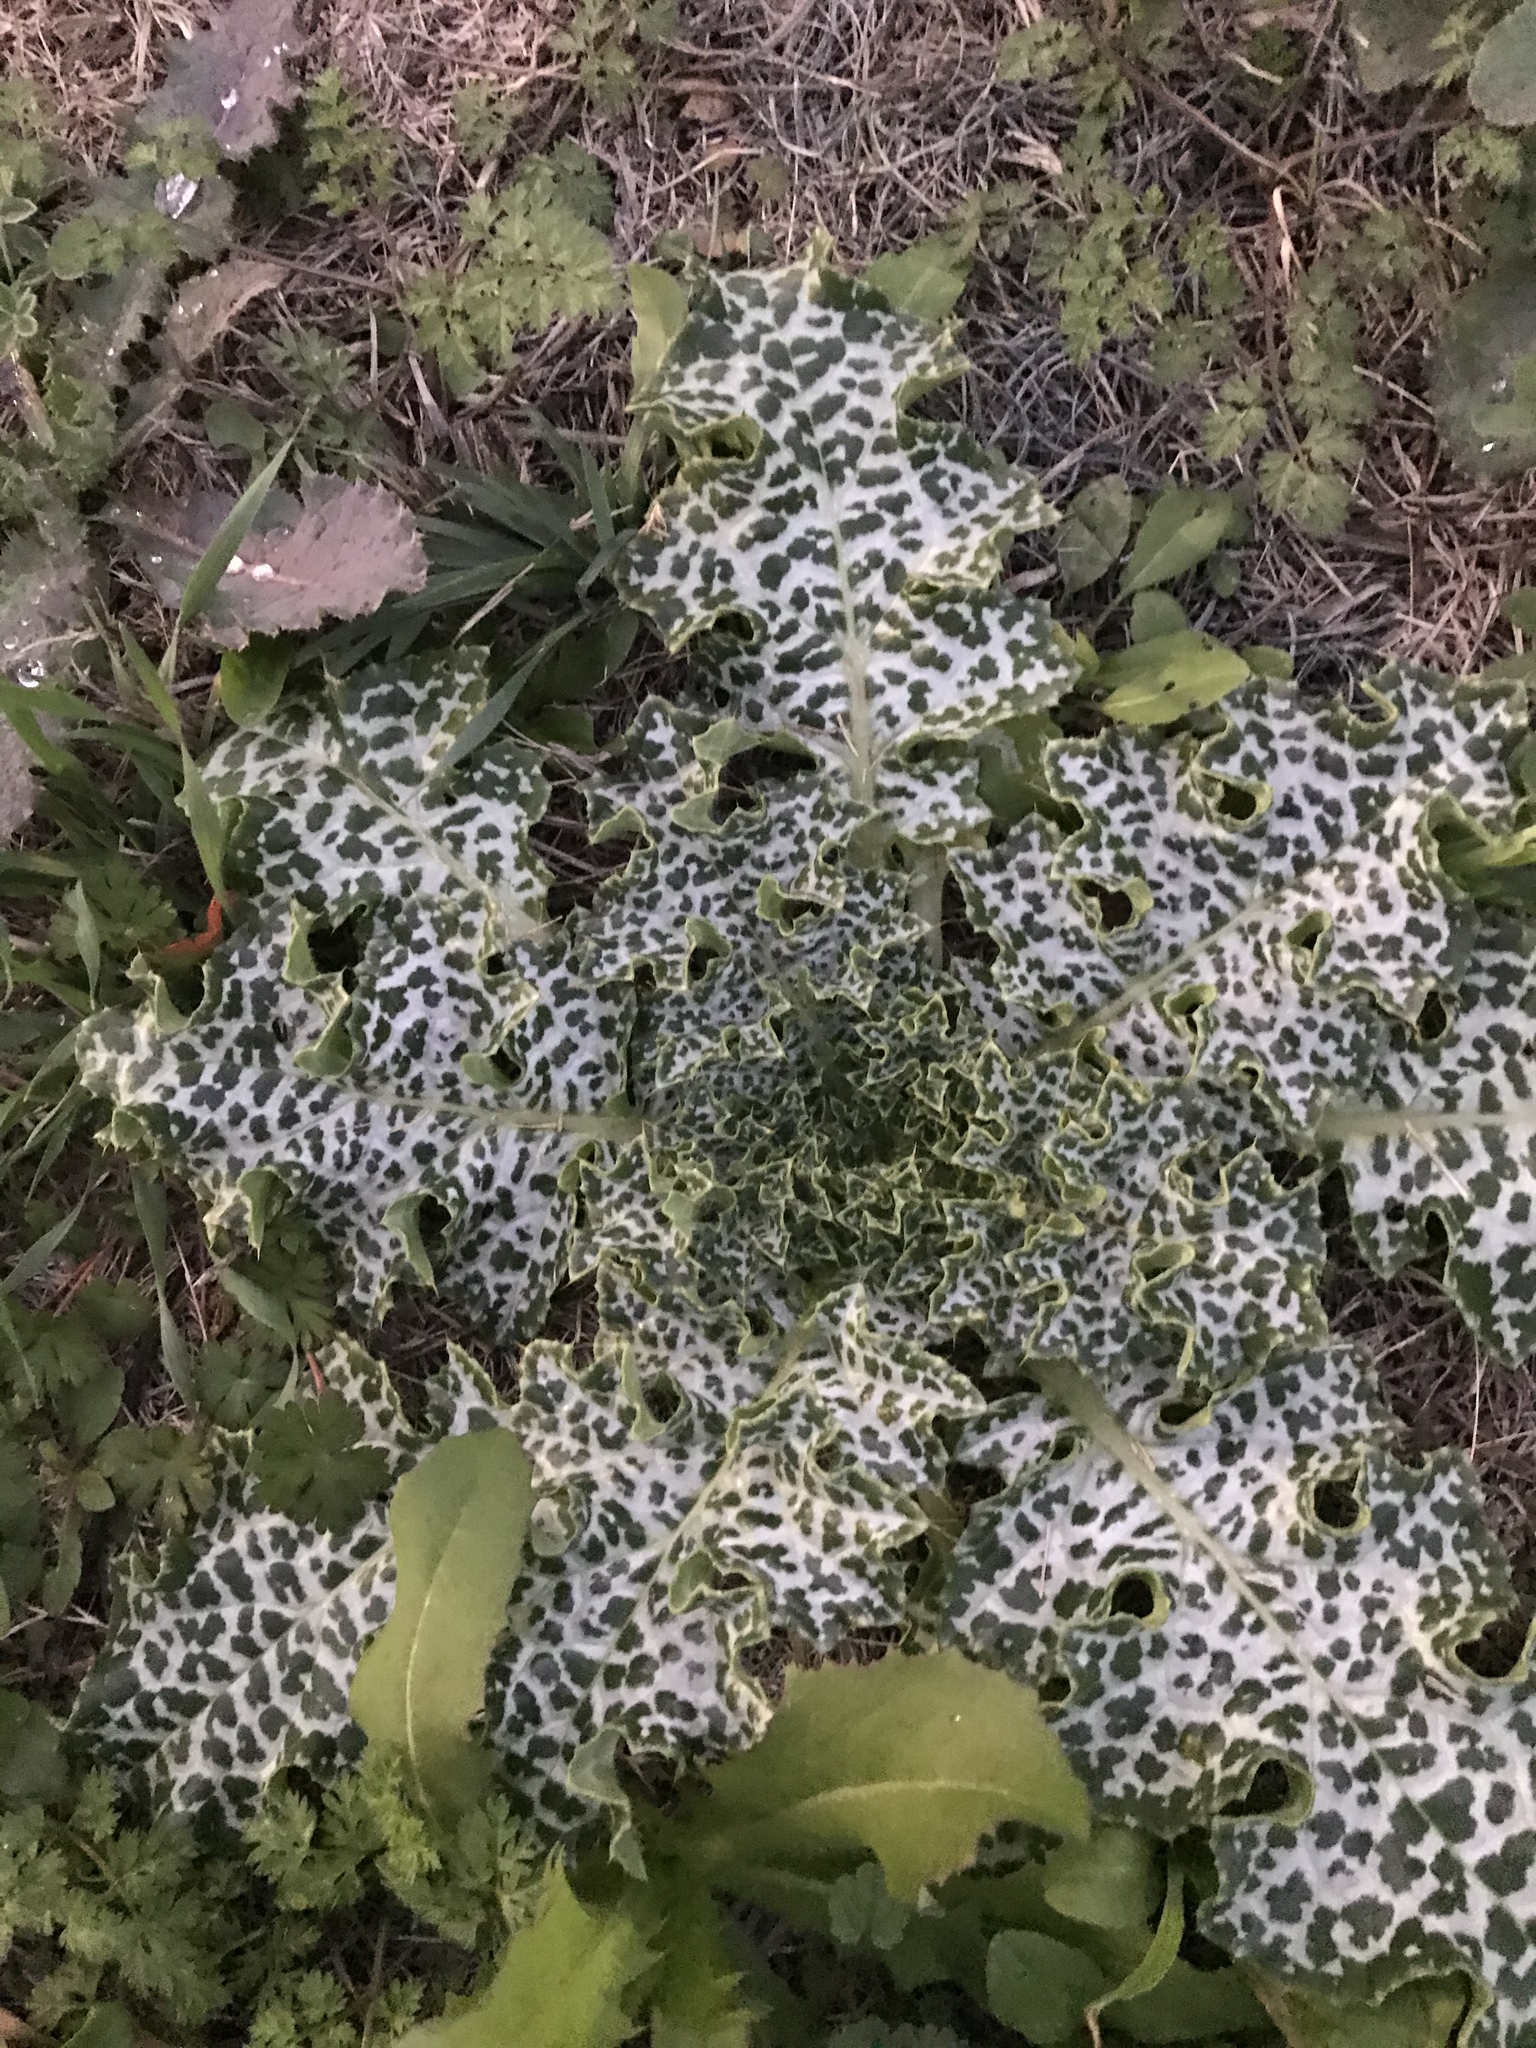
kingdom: Plantae
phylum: Tracheophyta
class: Magnoliopsida
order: Asterales
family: Asteraceae
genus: Silybum
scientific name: Silybum marianum
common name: Milk thistle
